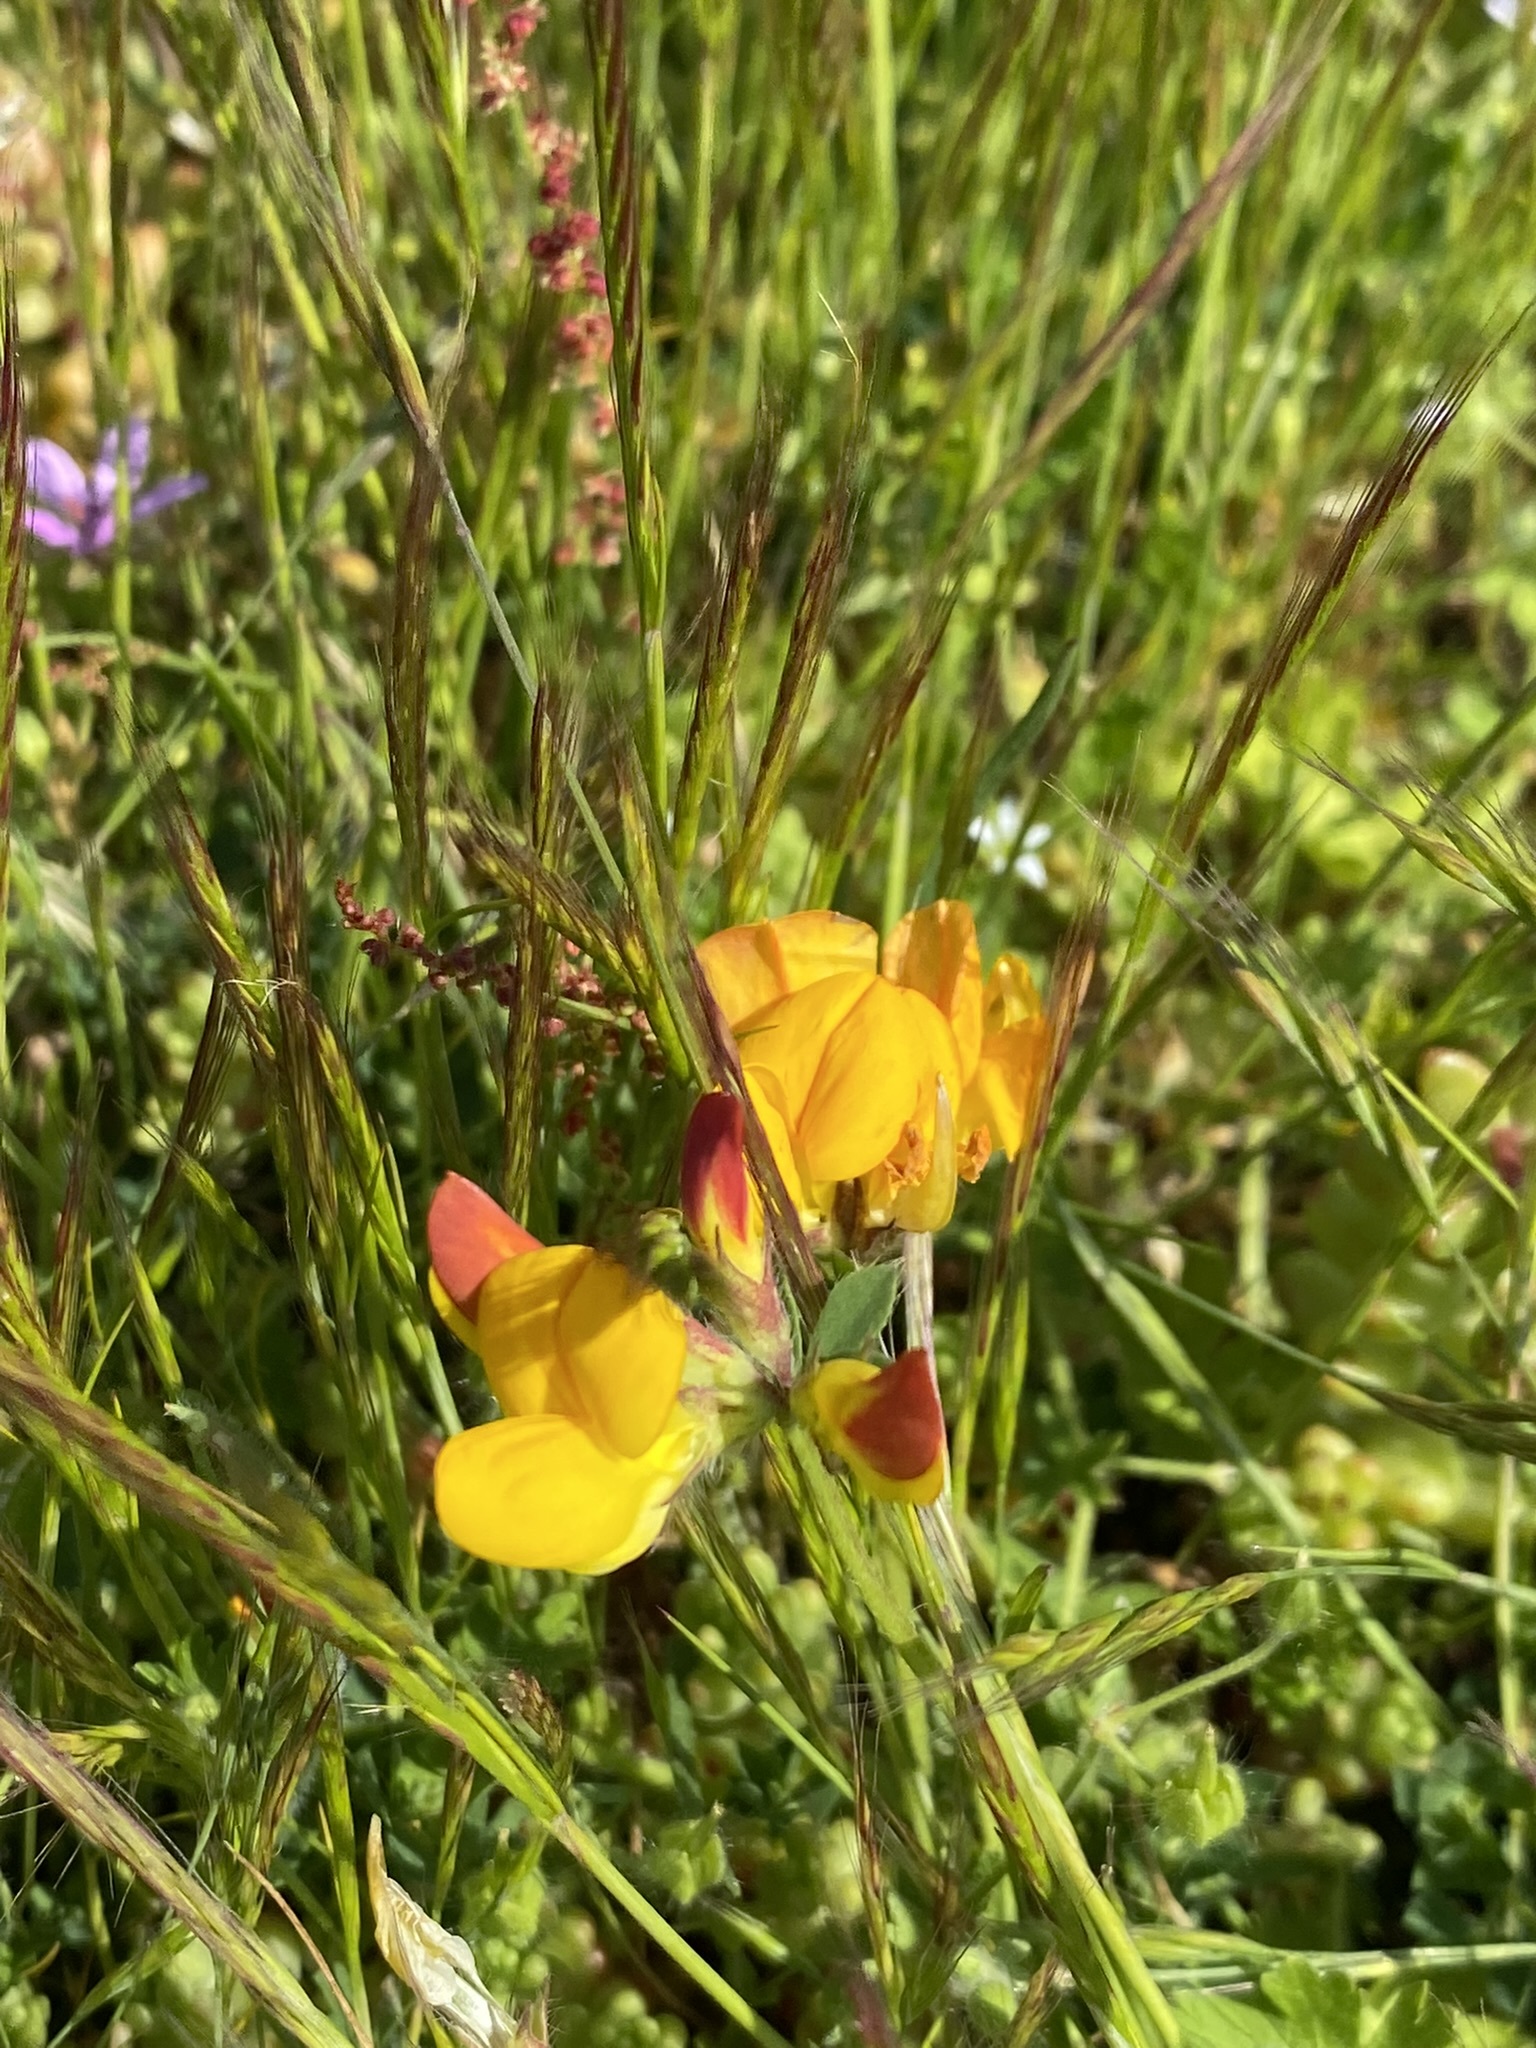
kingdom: Plantae
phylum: Tracheophyta
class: Magnoliopsida
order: Fabales
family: Fabaceae
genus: Lotus
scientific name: Lotus corniculatus
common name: Common bird's-foot-trefoil
